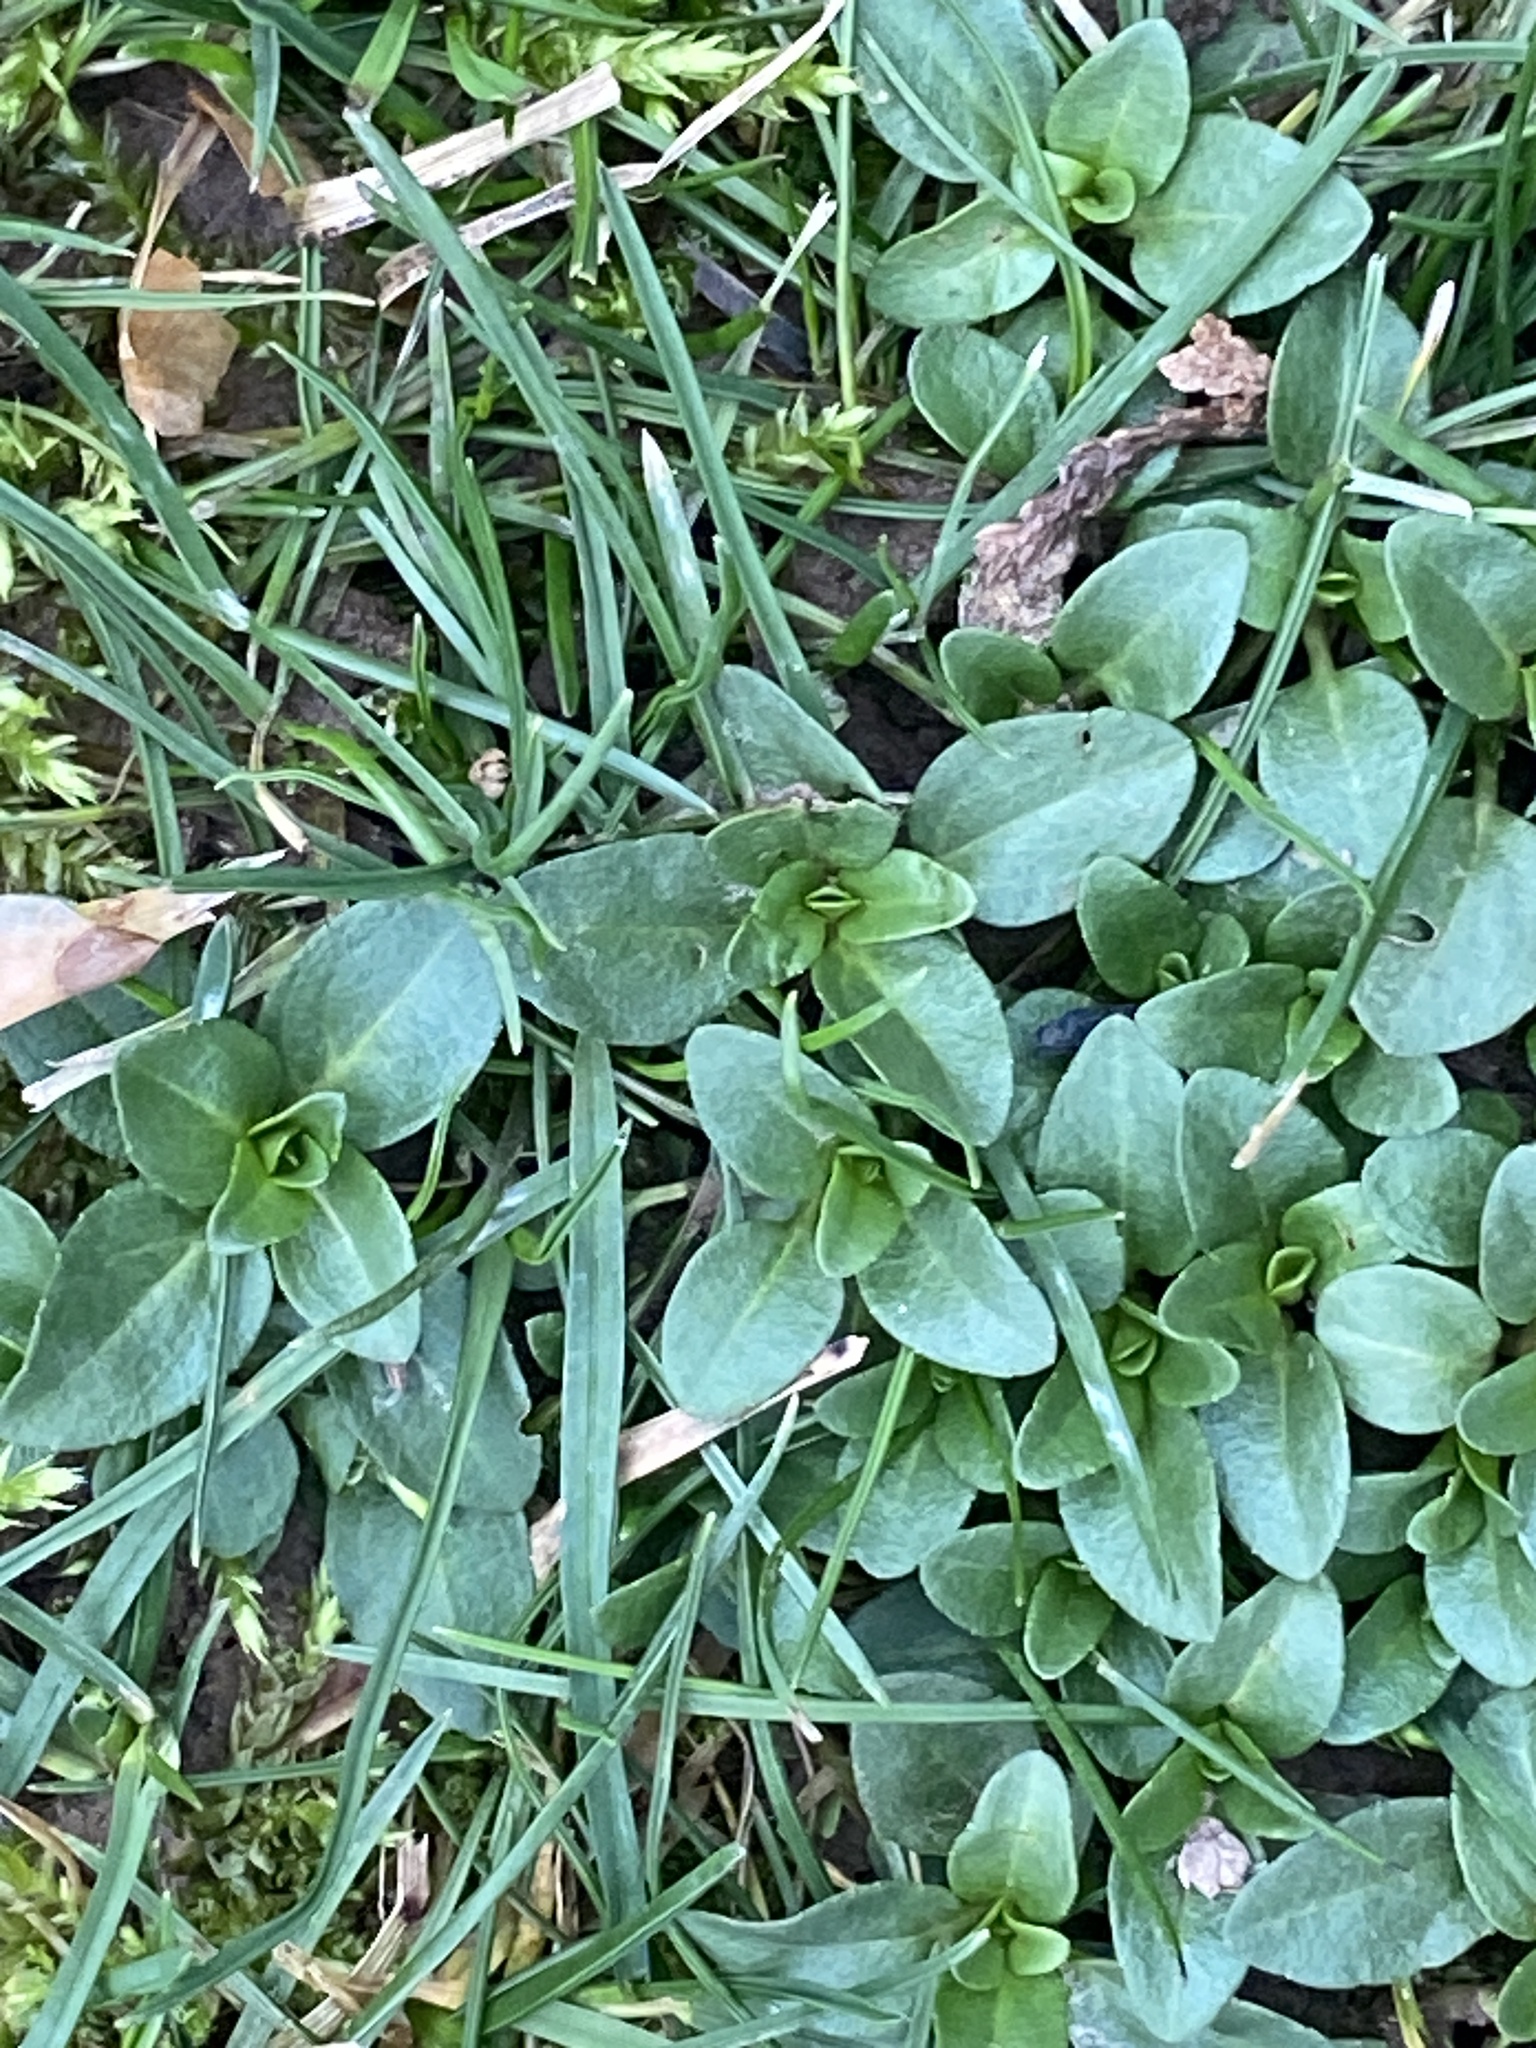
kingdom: Plantae
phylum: Tracheophyta
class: Magnoliopsida
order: Lamiales
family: Plantaginaceae
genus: Veronica
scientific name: Veronica serpyllifolia
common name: Thyme-leaved speedwell
